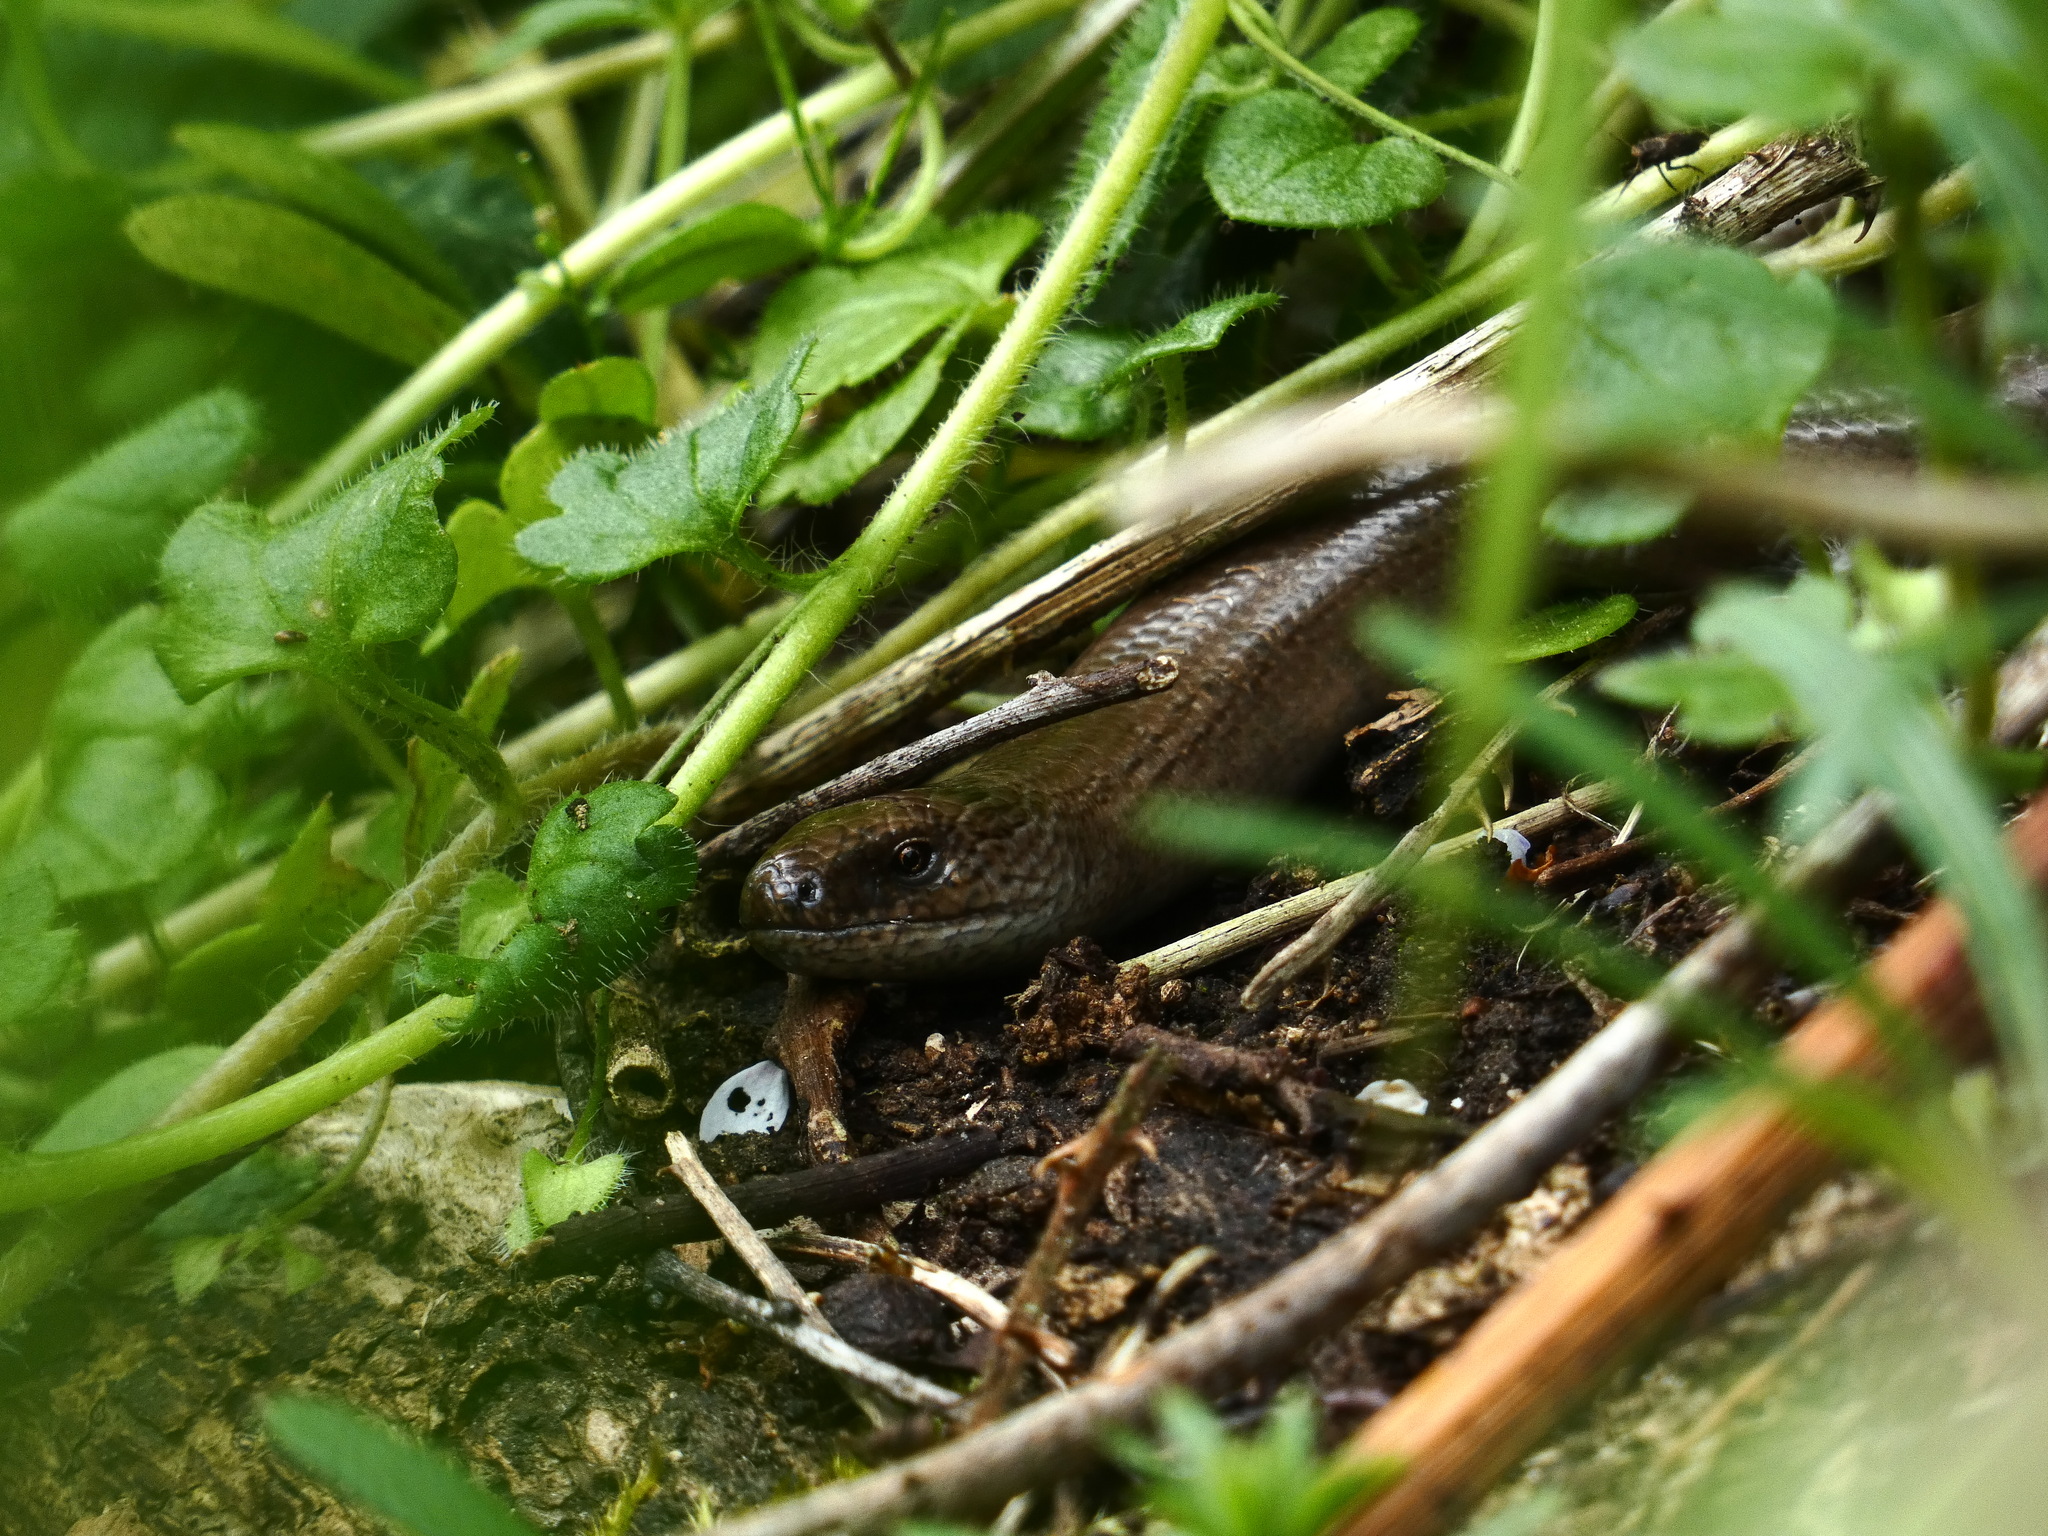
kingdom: Animalia
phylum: Chordata
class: Squamata
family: Anguidae
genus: Anguis
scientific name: Anguis fragilis
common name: Slow worm
